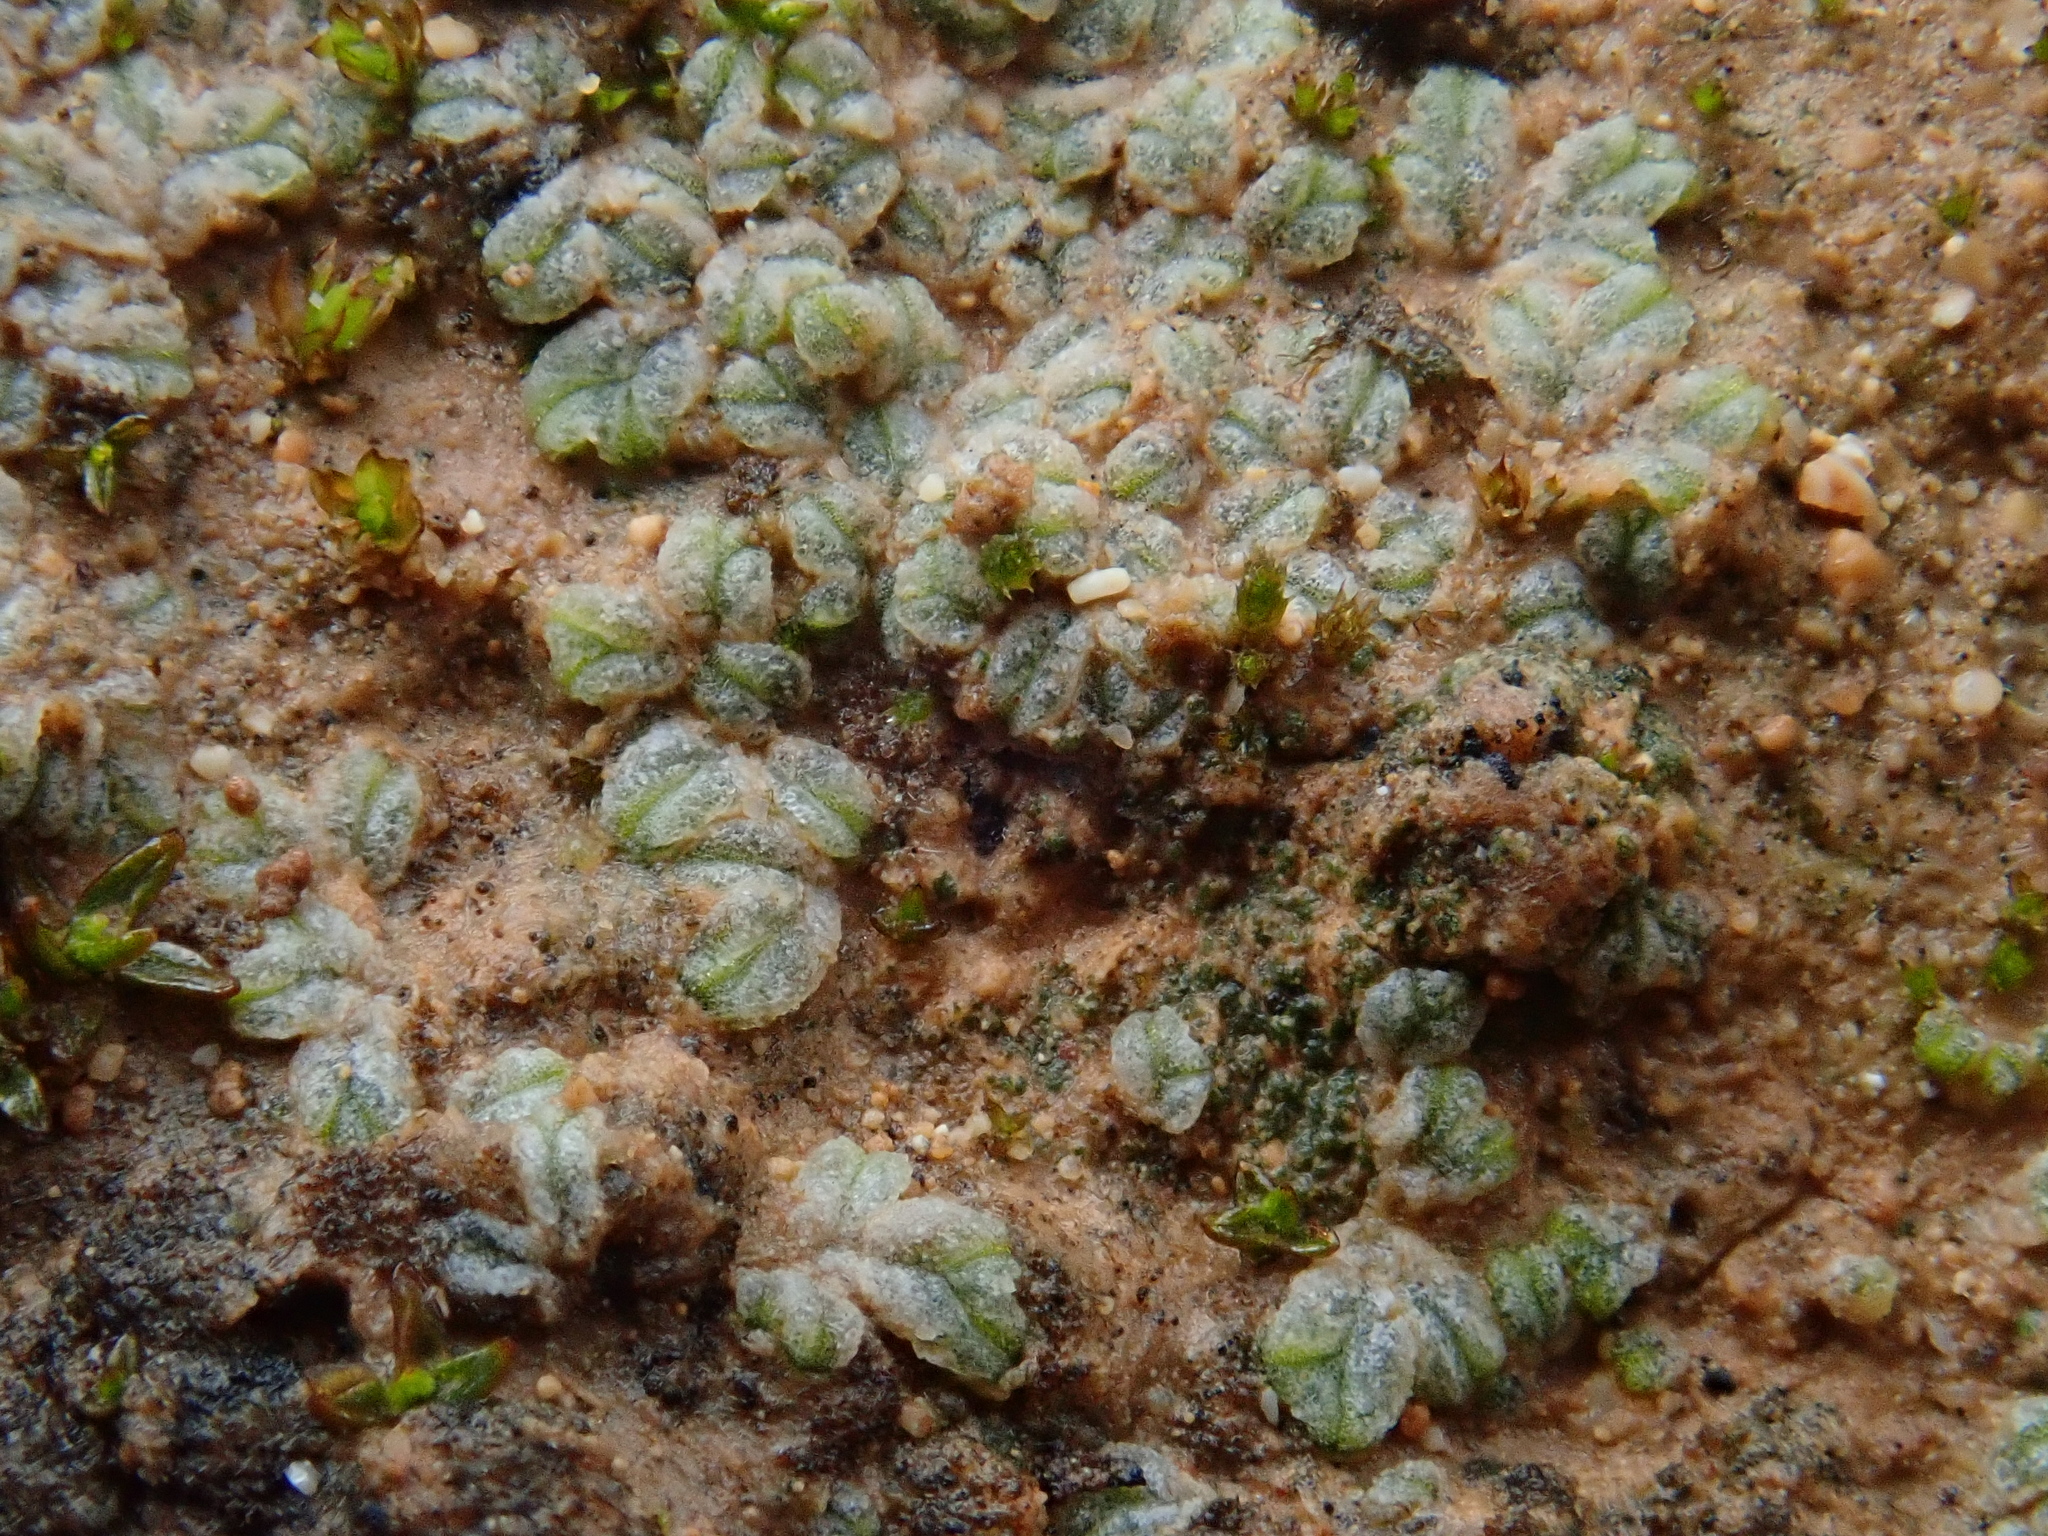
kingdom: Plantae
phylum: Marchantiophyta
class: Marchantiopsida
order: Marchantiales
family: Ricciaceae
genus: Riccia
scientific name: Riccia crustata
